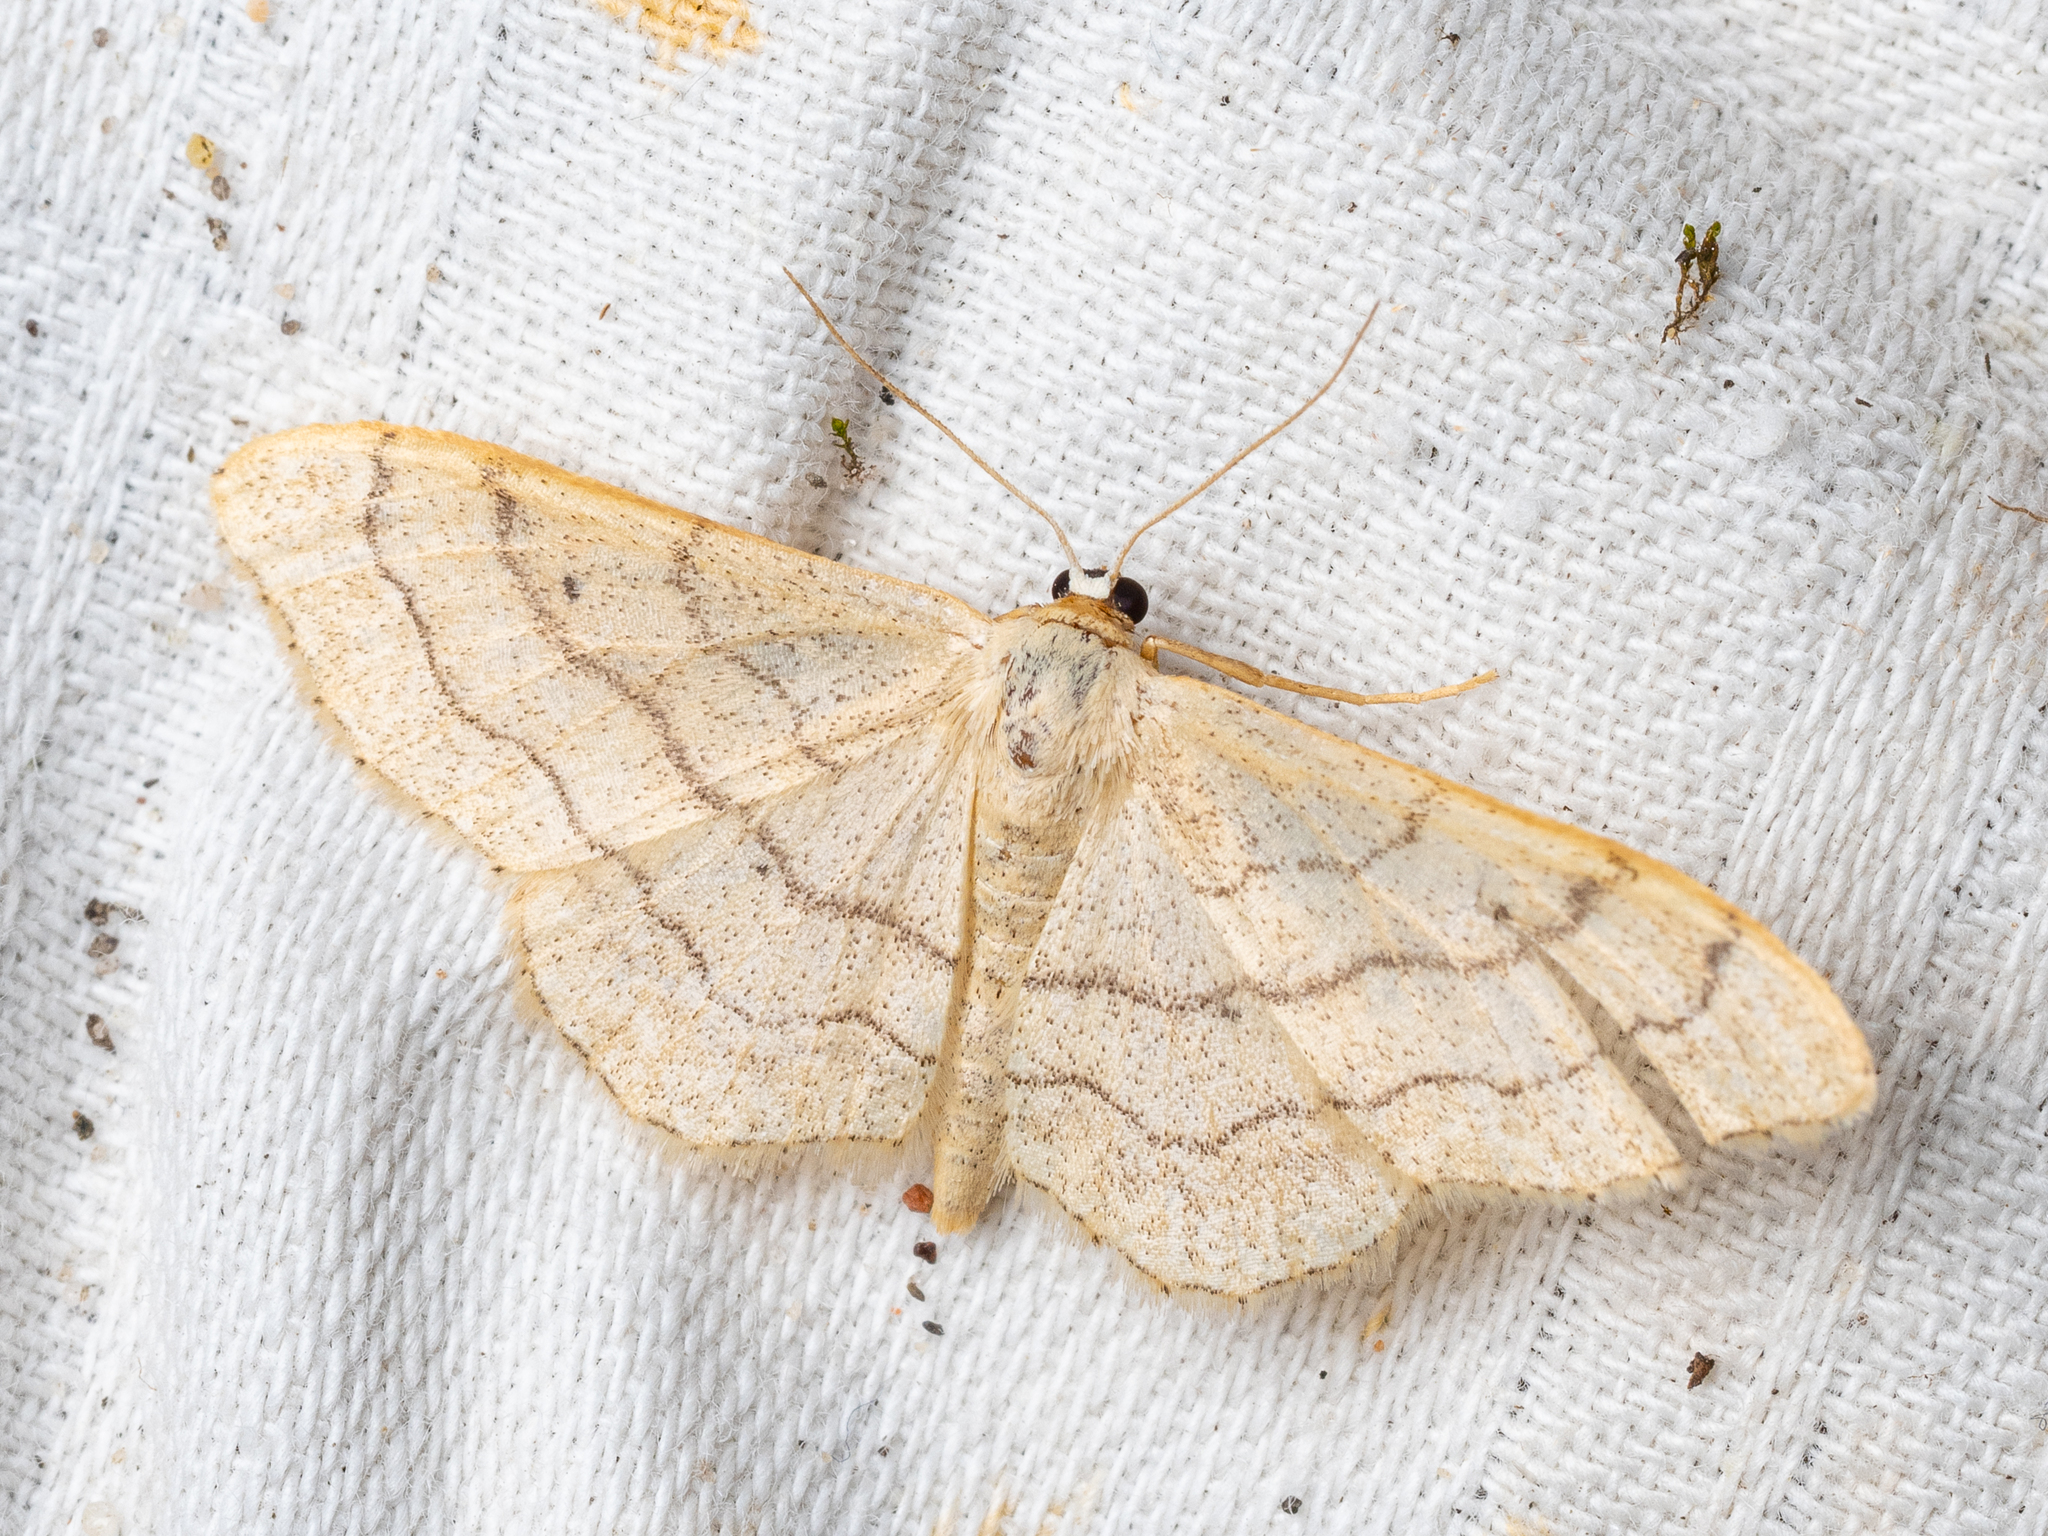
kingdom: Animalia
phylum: Arthropoda
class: Insecta
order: Lepidoptera
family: Geometridae
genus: Idaea
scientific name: Idaea aversata
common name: Riband wave
